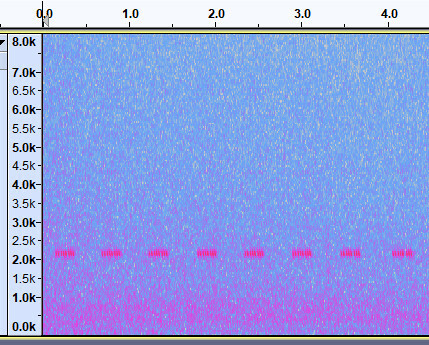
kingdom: Animalia
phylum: Arthropoda
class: Insecta
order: Orthoptera
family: Gryllidae
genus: Oecanthus
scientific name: Oecanthus fultoni
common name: Snowy tree cricket
